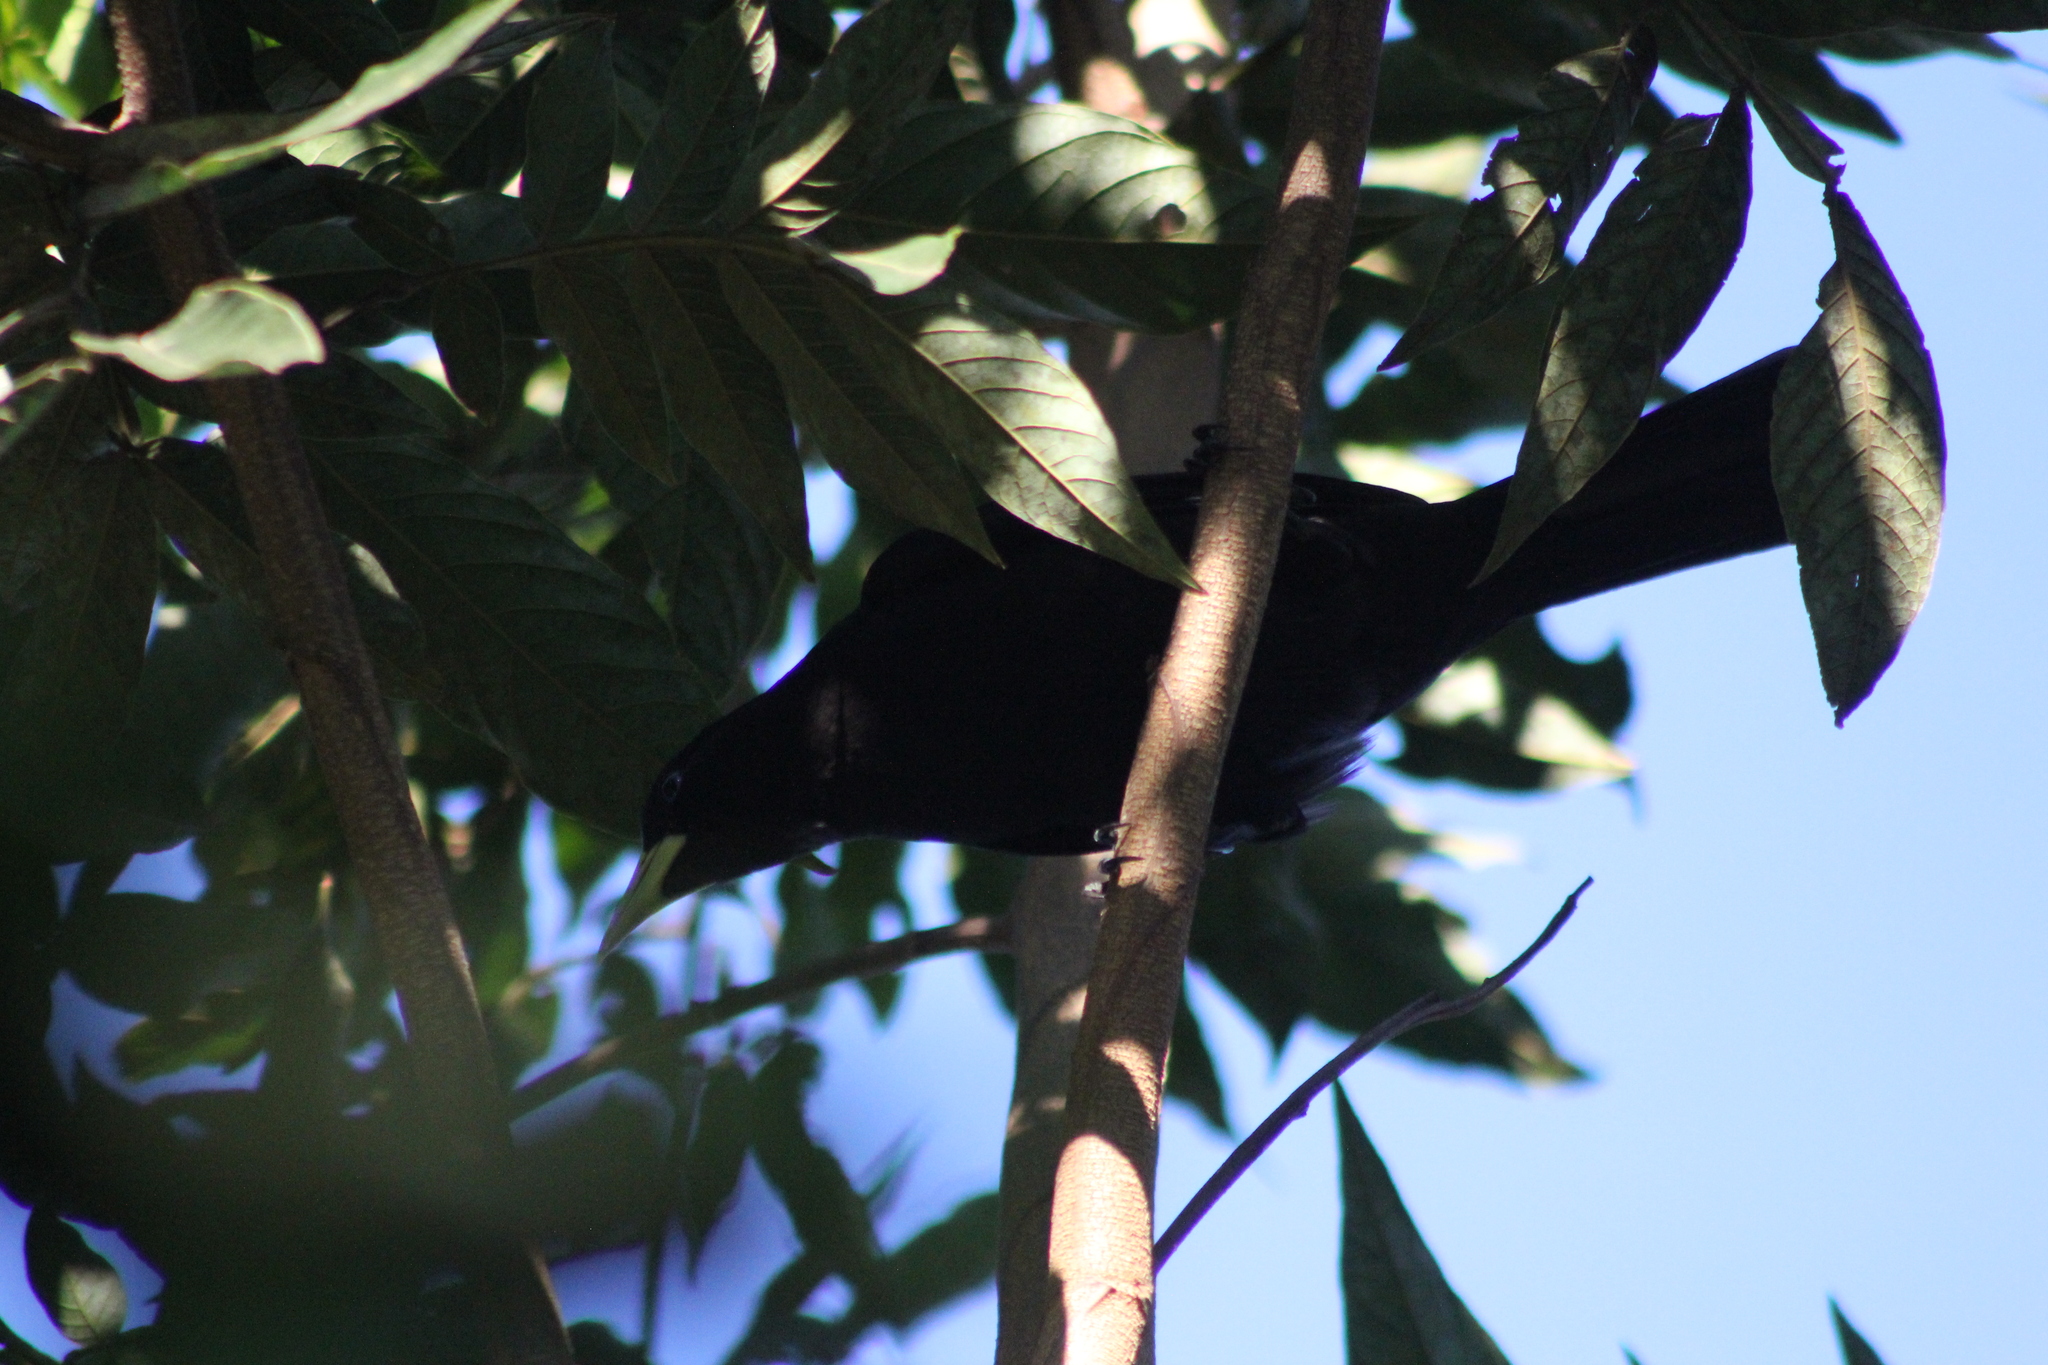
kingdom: Animalia
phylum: Chordata
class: Aves
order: Passeriformes
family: Icteridae
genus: Cacicus
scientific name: Cacicus haemorrhous
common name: Red-rumped cacique
